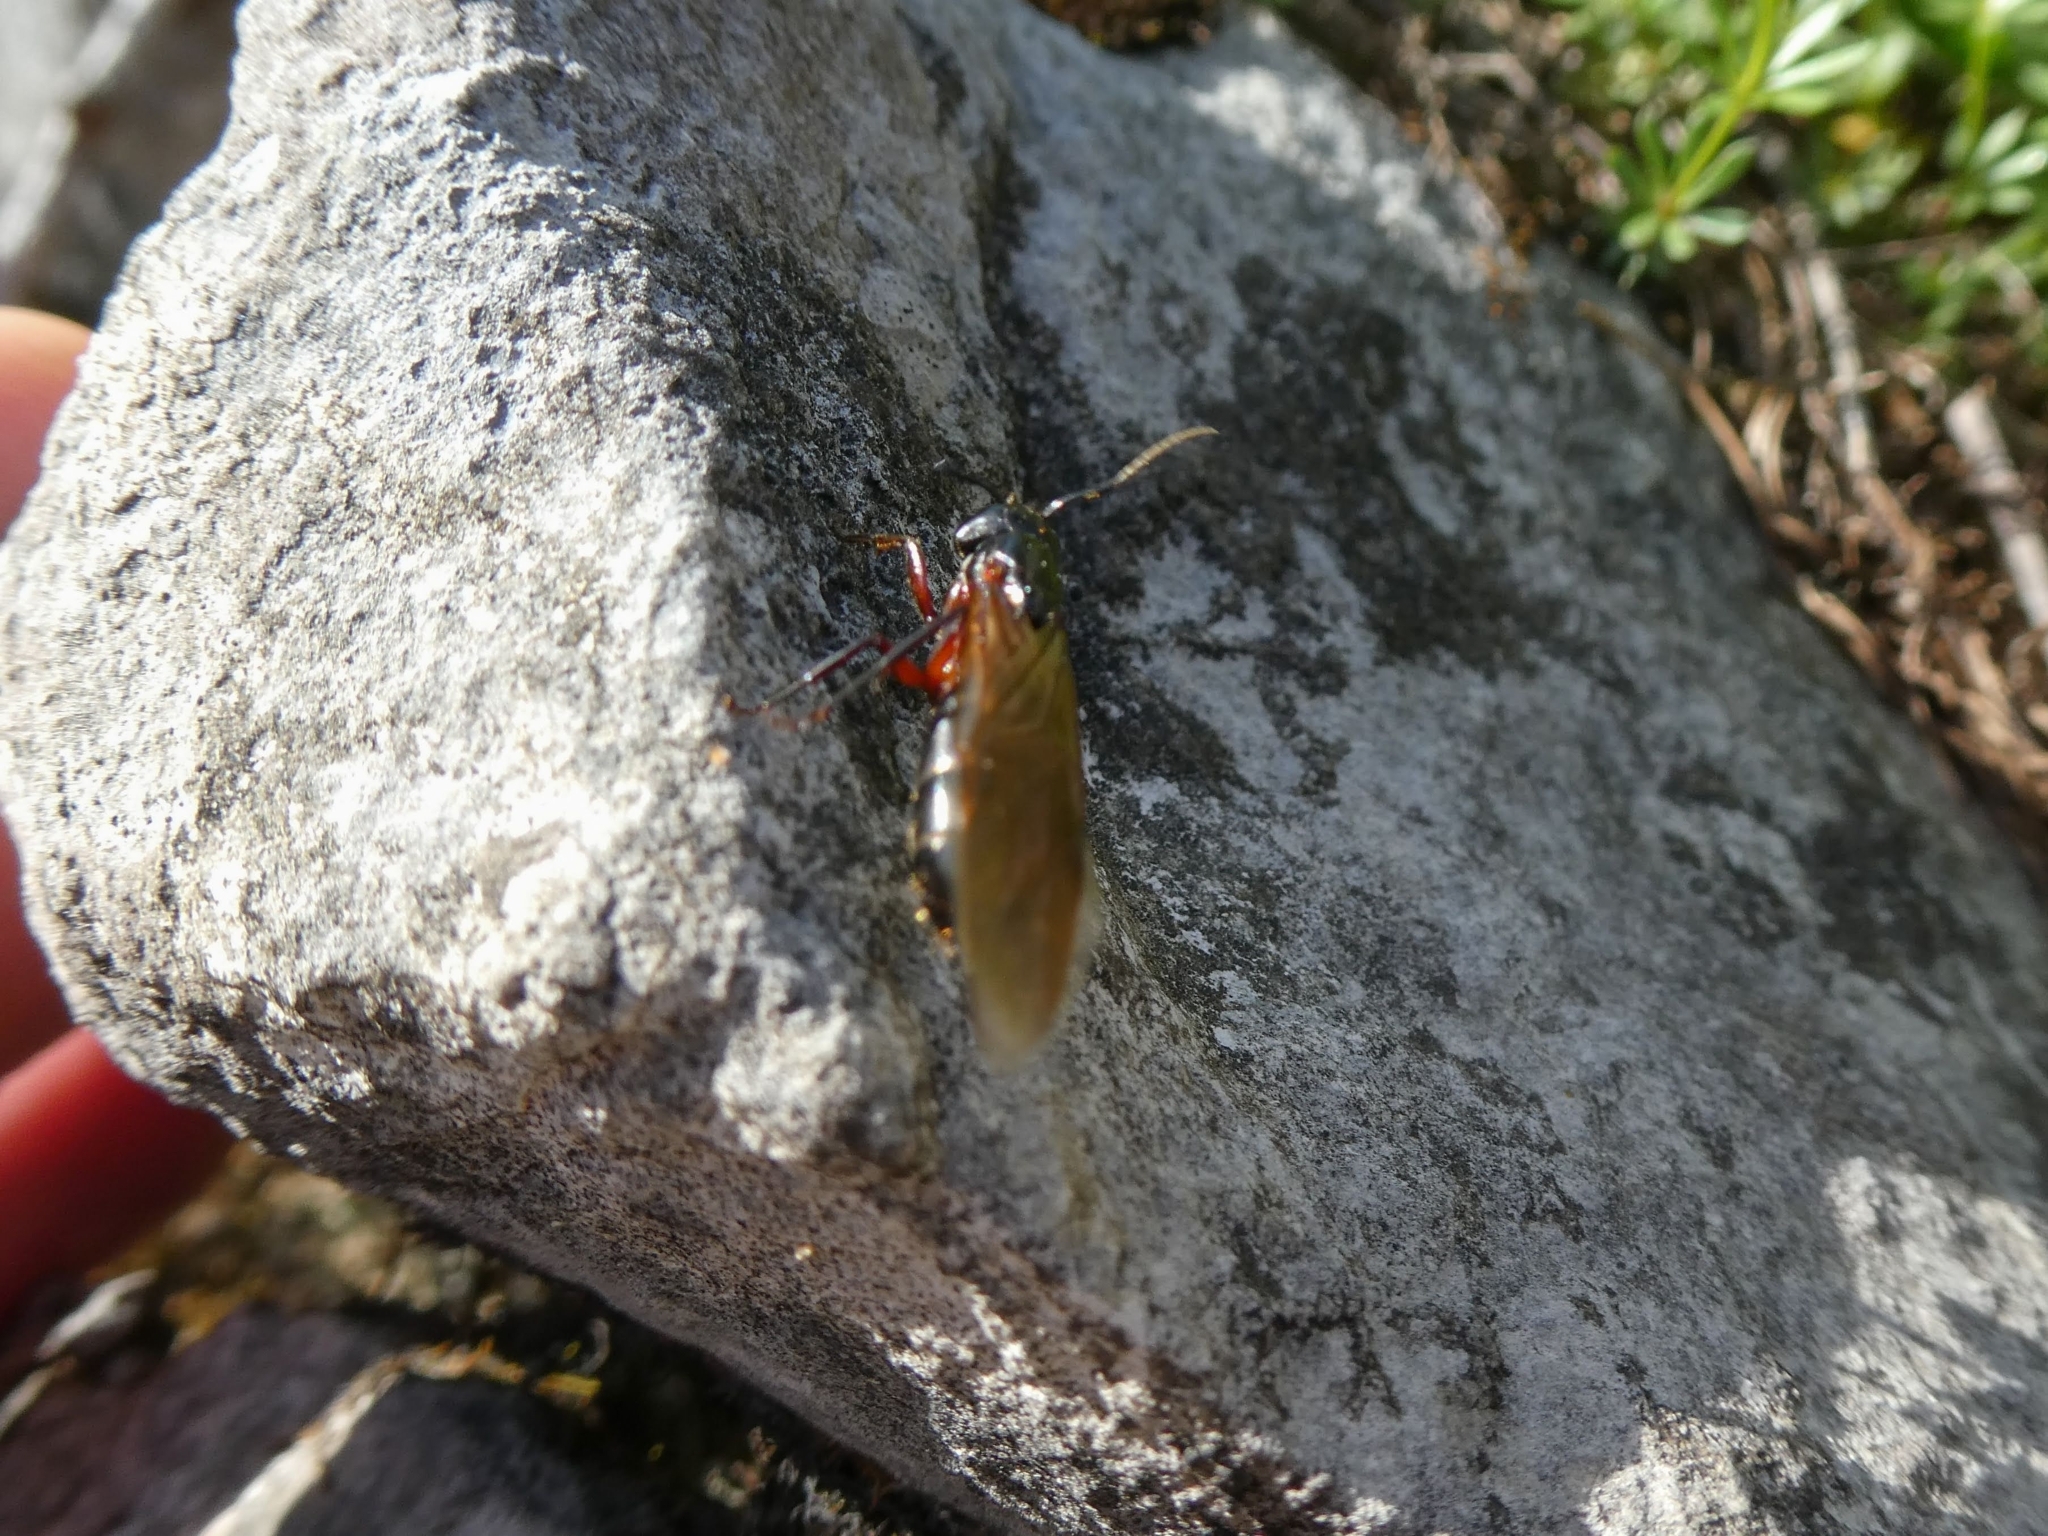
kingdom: Animalia
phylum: Arthropoda
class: Insecta
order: Hymenoptera
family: Formicidae
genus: Camponotus
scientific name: Camponotus herculeanus
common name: Hercules ant
